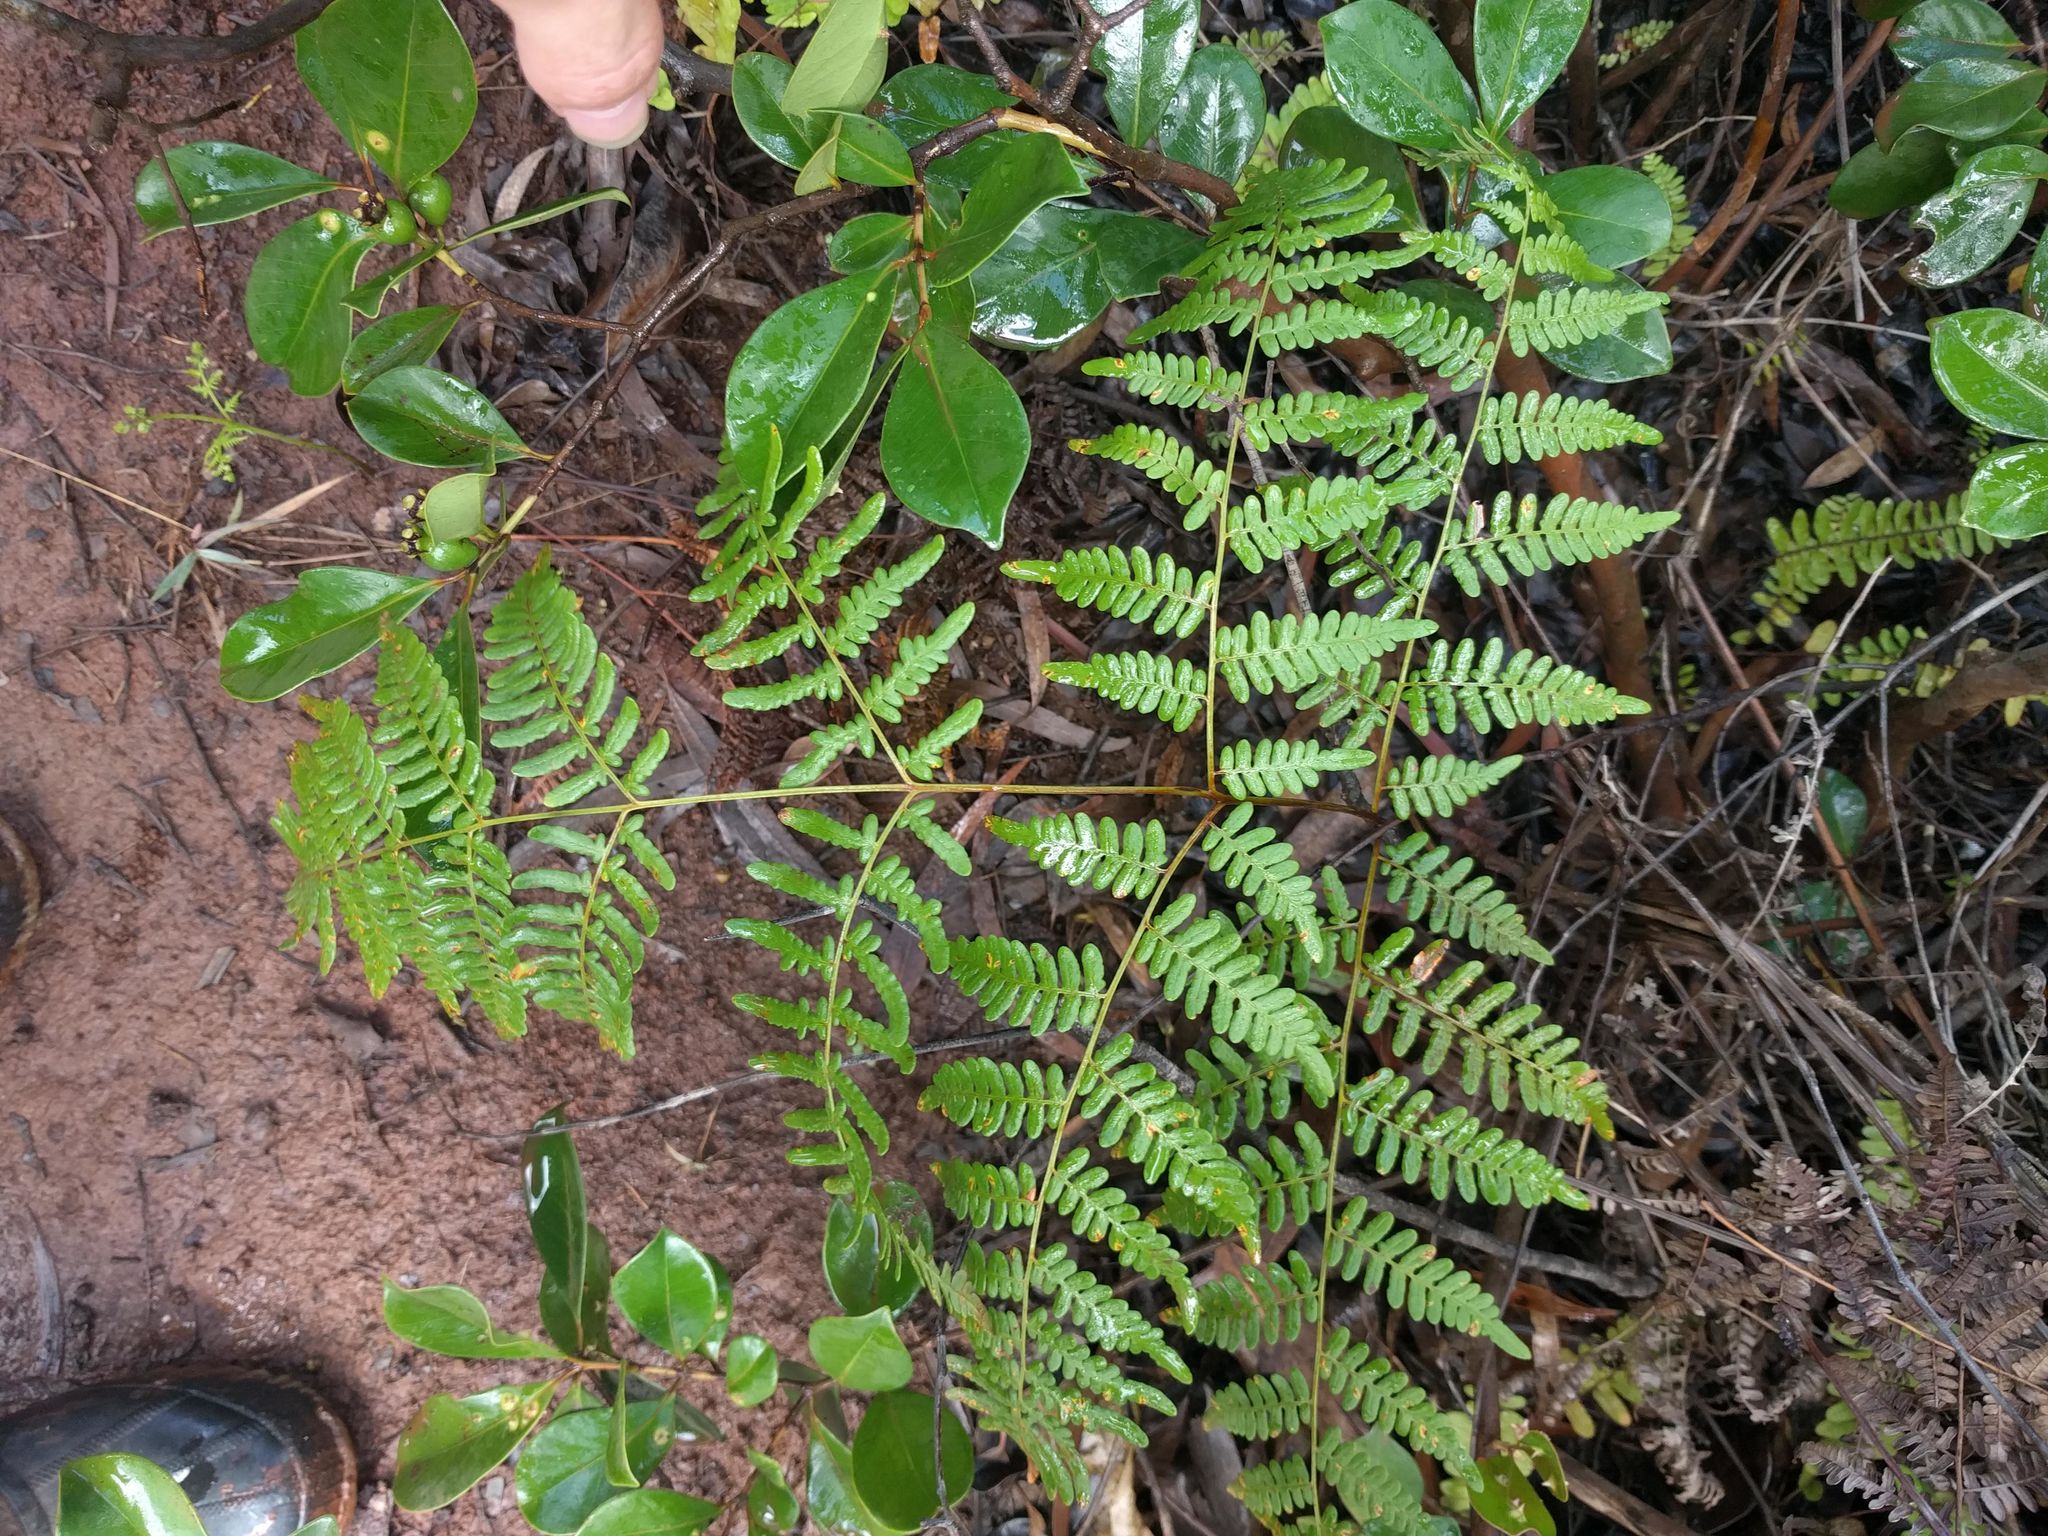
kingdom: Plantae
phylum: Tracheophyta
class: Polypodiopsida
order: Polypodiales
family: Dennstaedtiaceae
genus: Pteridium
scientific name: Pteridium aquilinum
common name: Bracken
